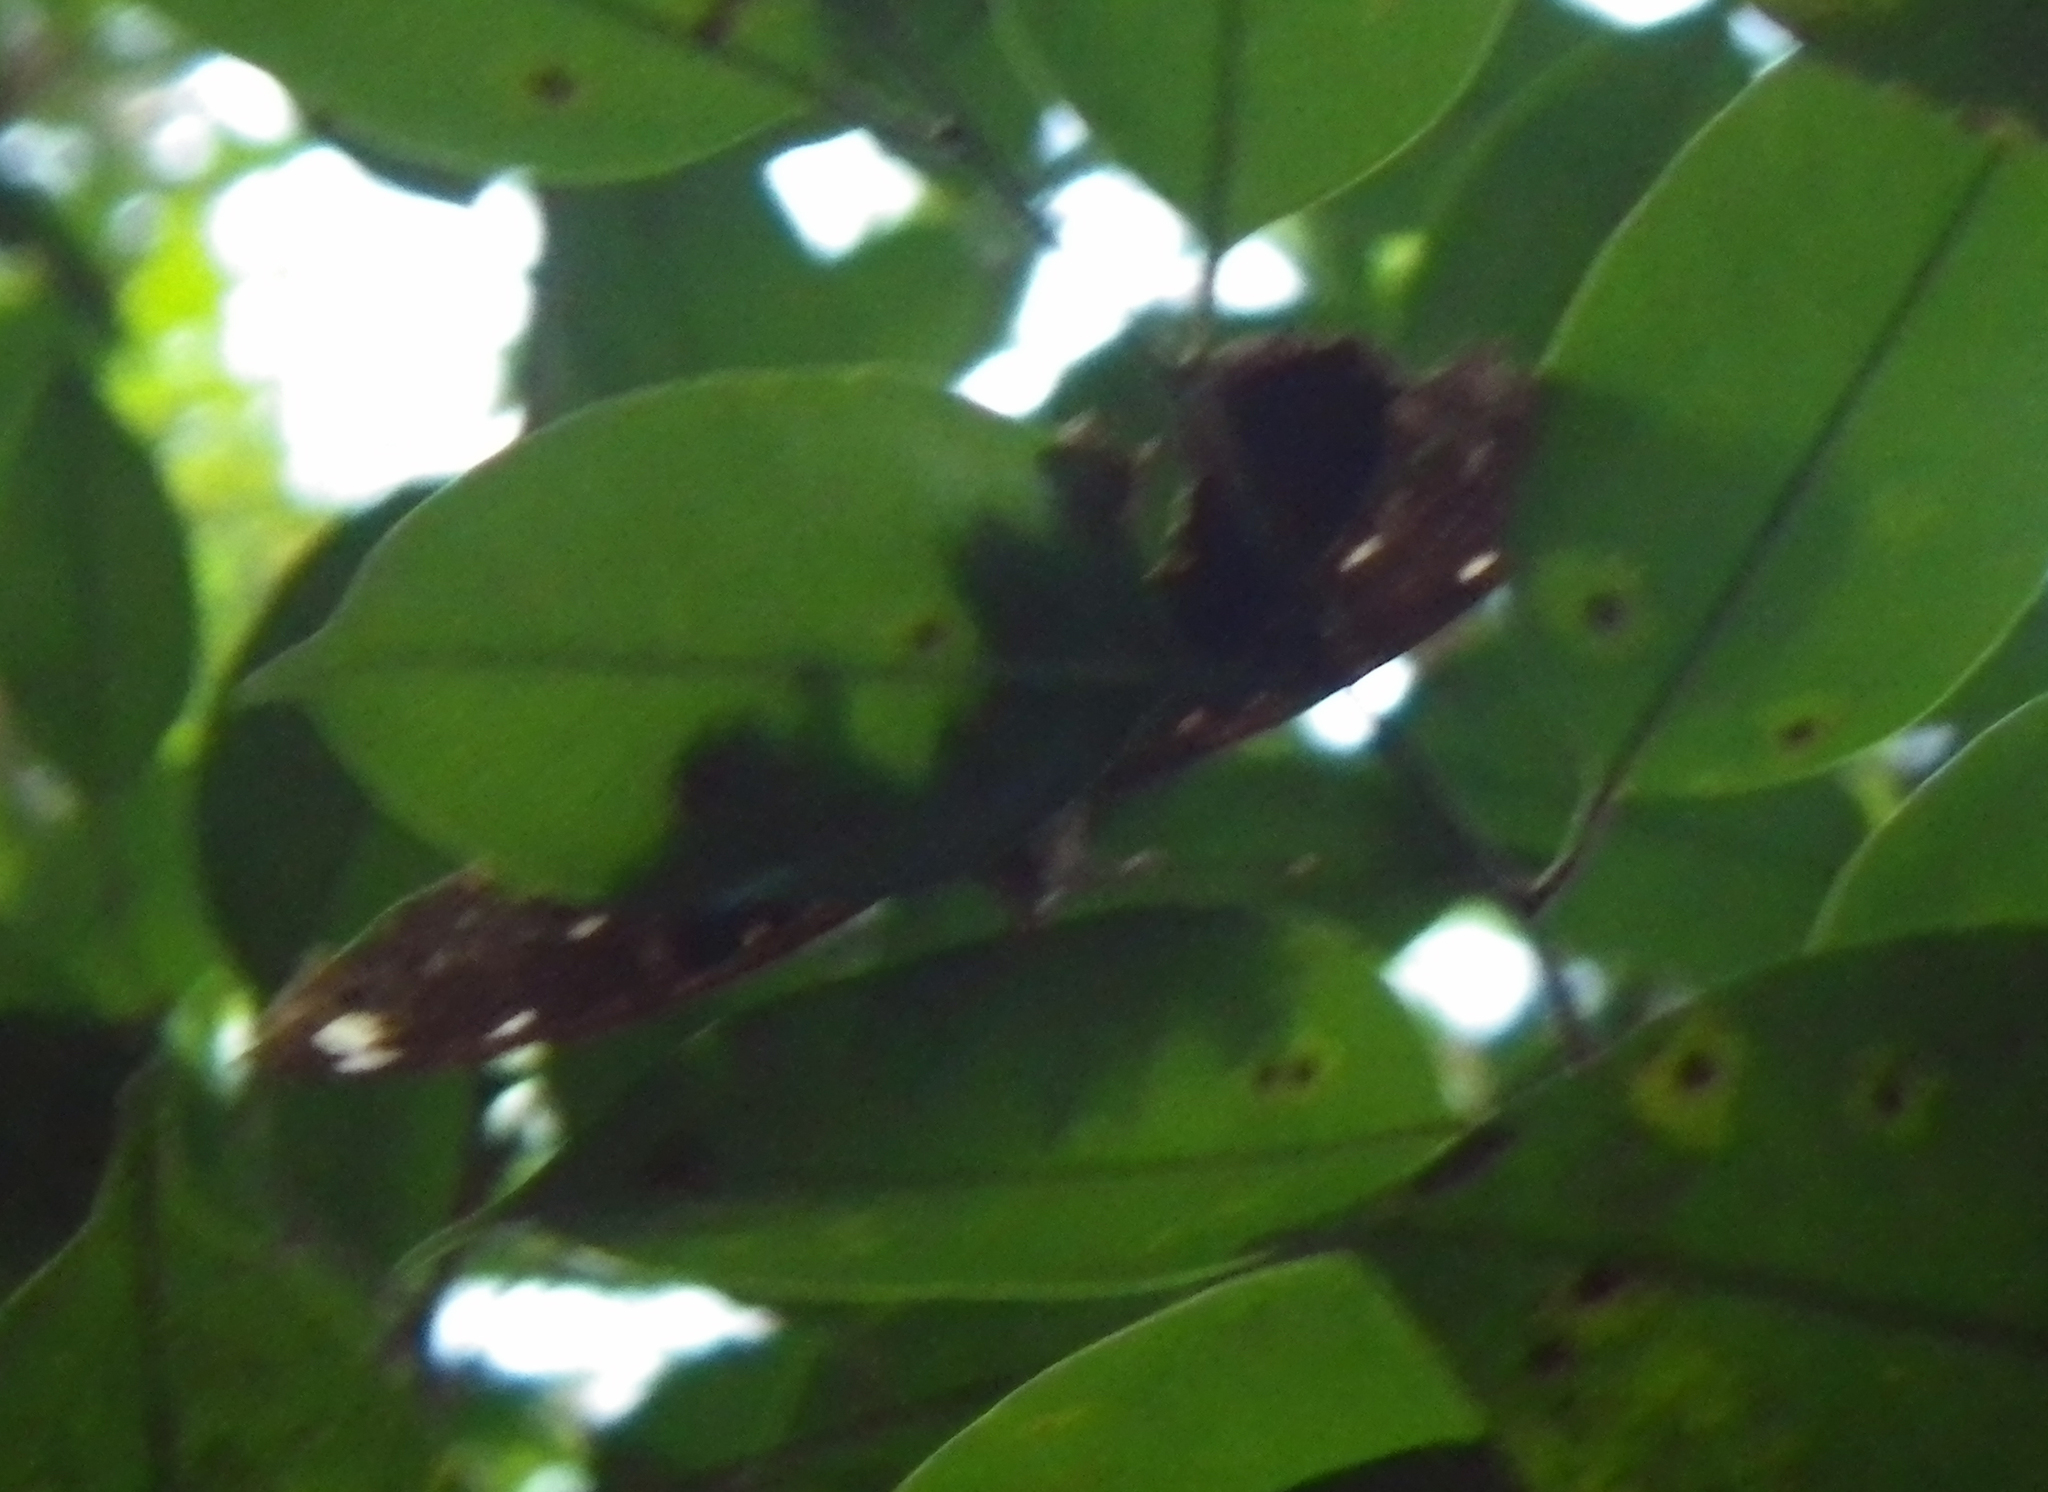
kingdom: Animalia
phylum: Arthropoda
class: Insecta
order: Lepidoptera
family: Nymphalidae
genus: Lexias
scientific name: Lexias
